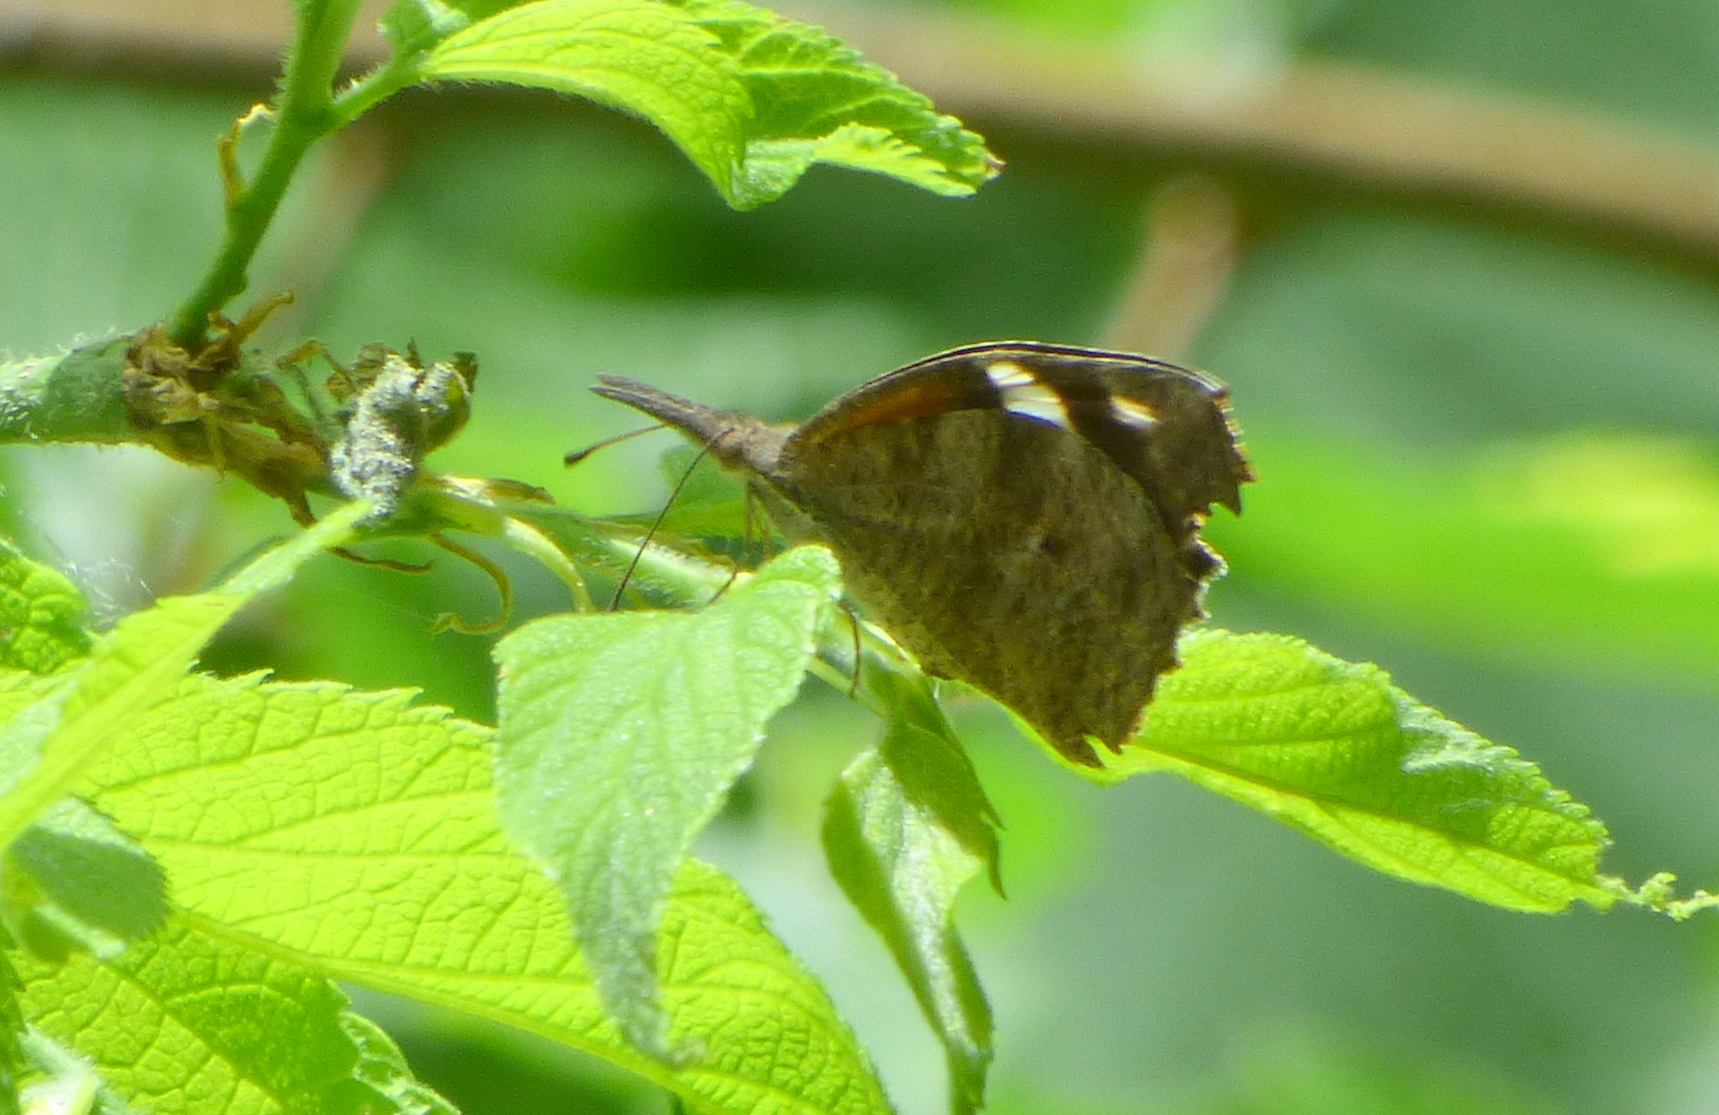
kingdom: Animalia
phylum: Arthropoda
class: Insecta
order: Lepidoptera
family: Nymphalidae
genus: Libytheana
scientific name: Libytheana carinenta
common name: American snout
